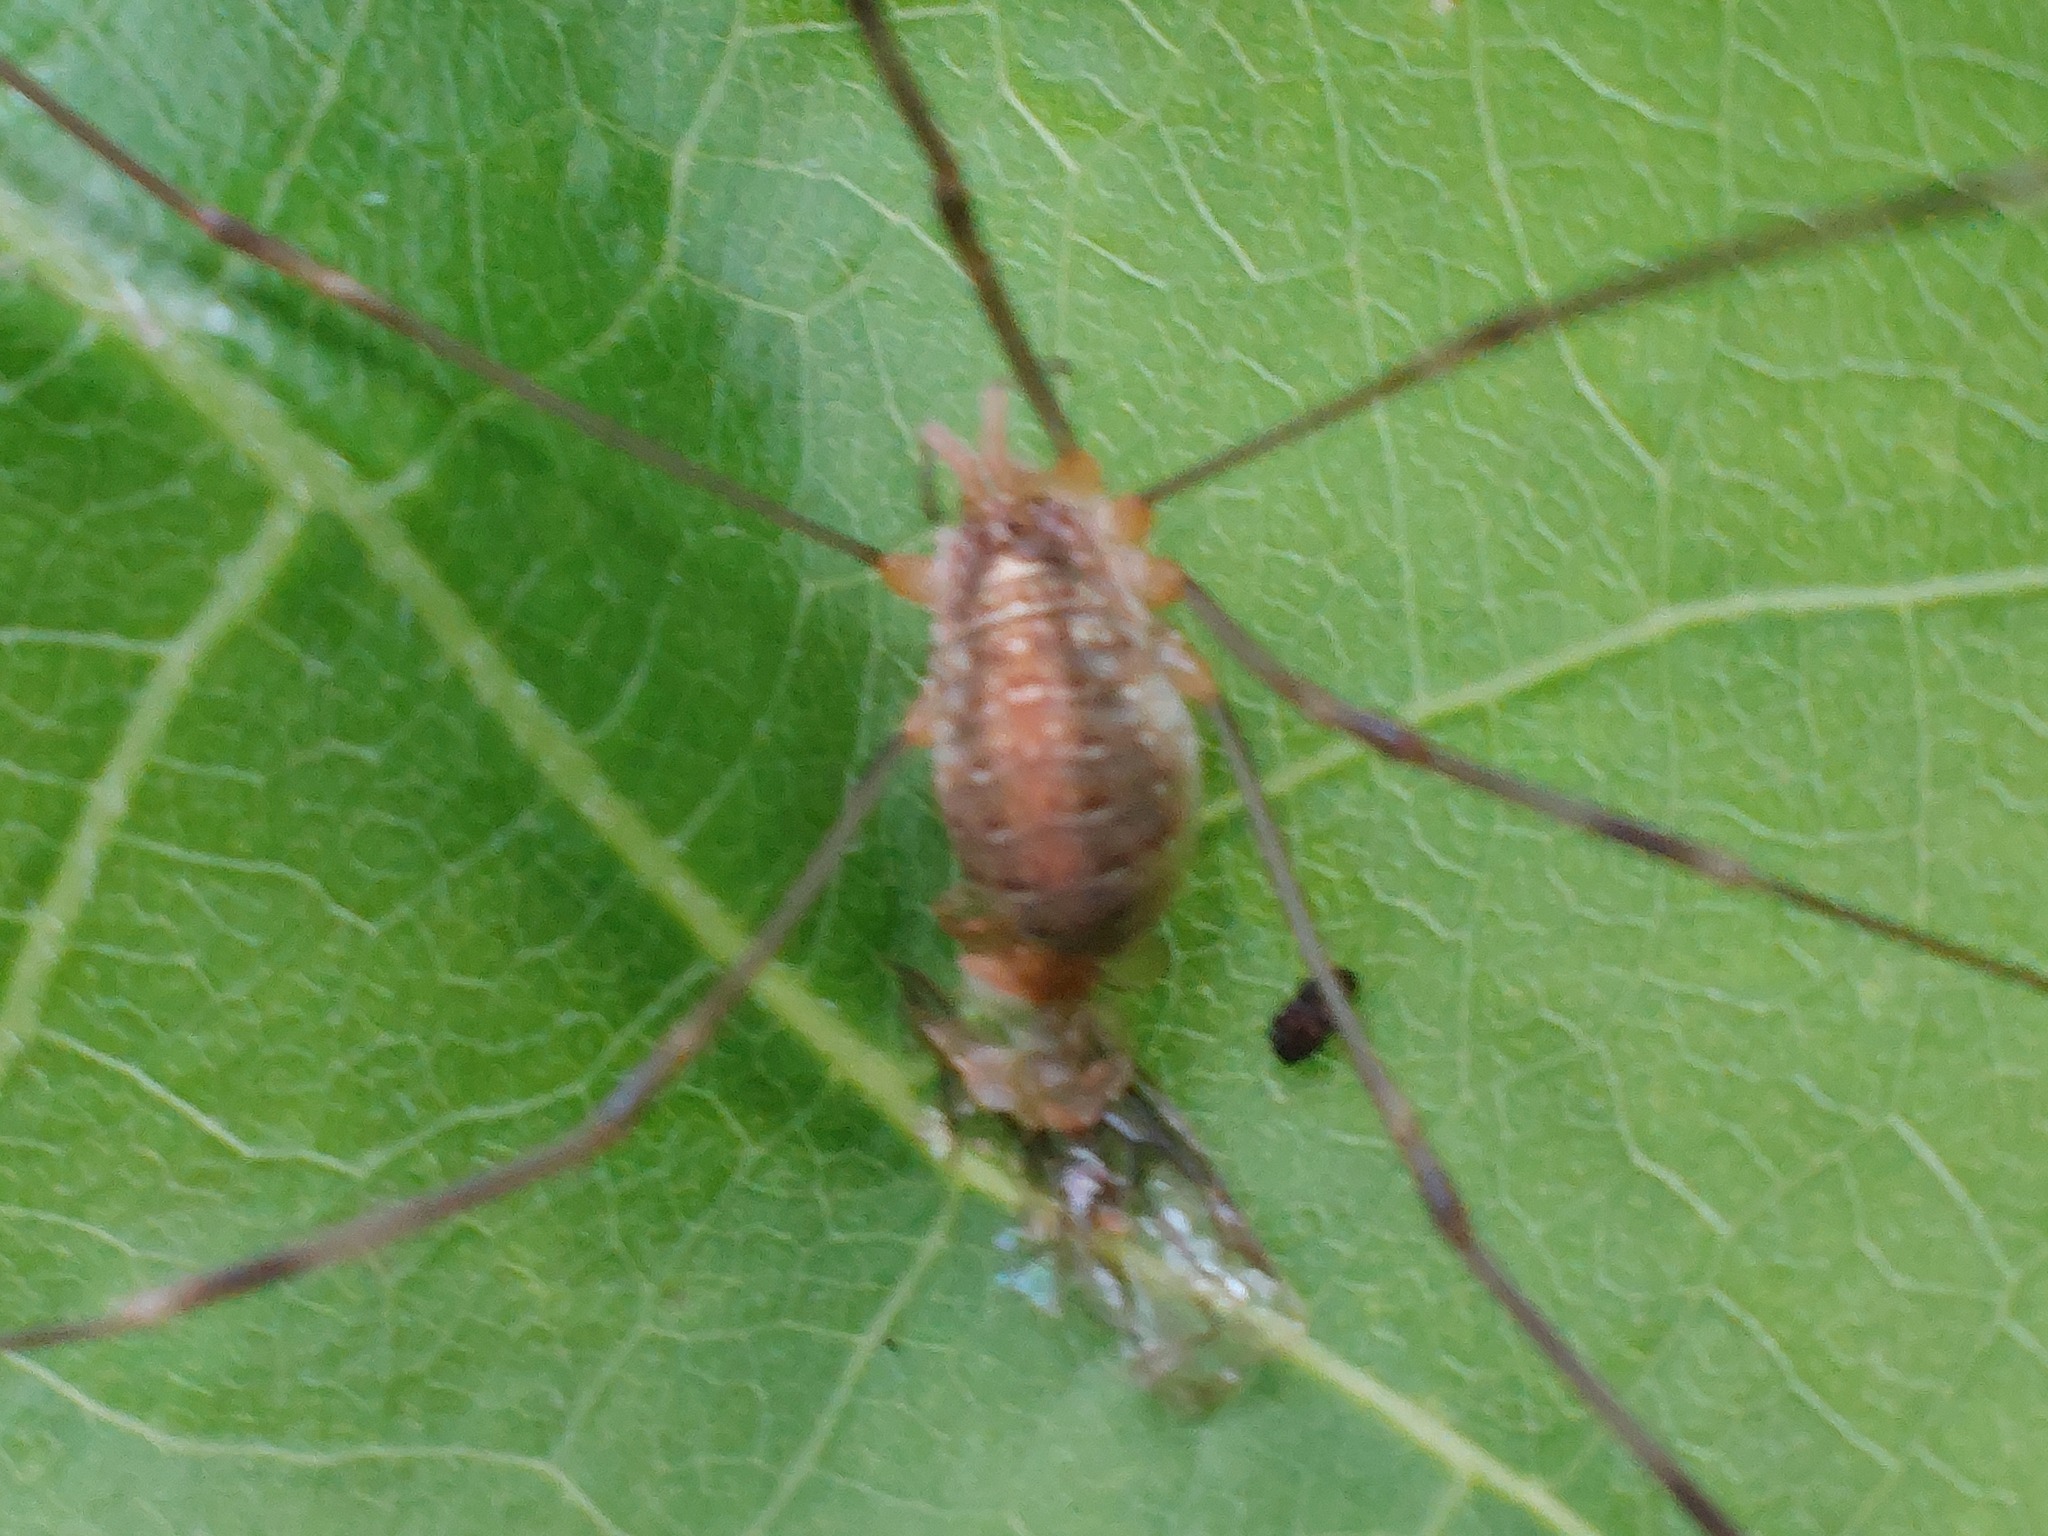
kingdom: Animalia
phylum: Arthropoda
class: Arachnida
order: Opiliones
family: Phalangiidae
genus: Opilio
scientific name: Opilio canestrinii
